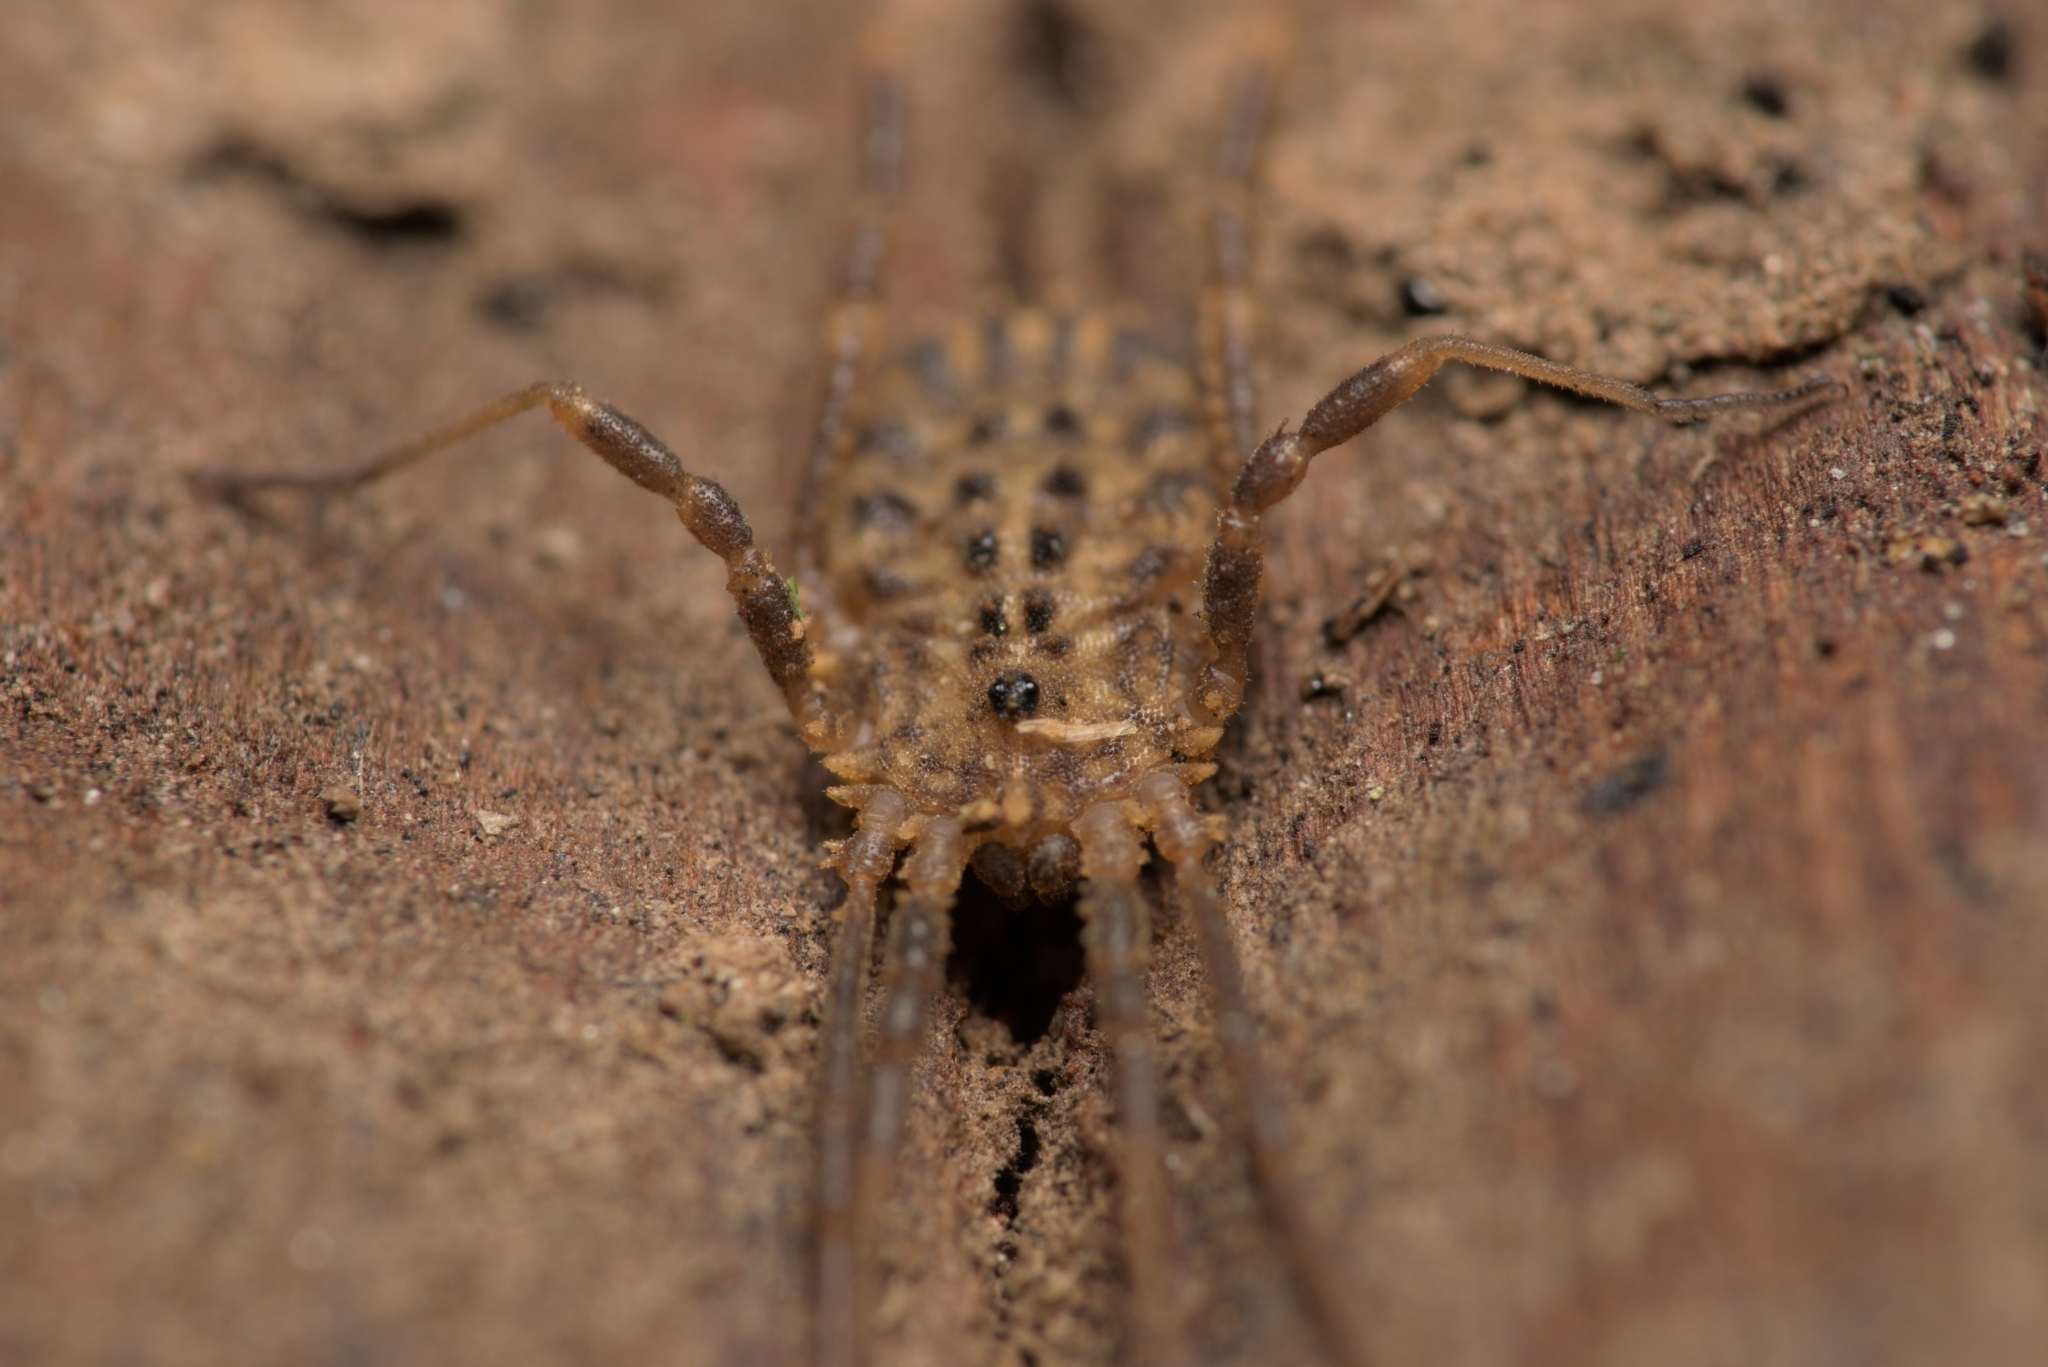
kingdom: Animalia
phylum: Arthropoda
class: Arachnida
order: Opiliones
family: Sclerosomatidae
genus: Homalenotus
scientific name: Homalenotus quadridentatus
